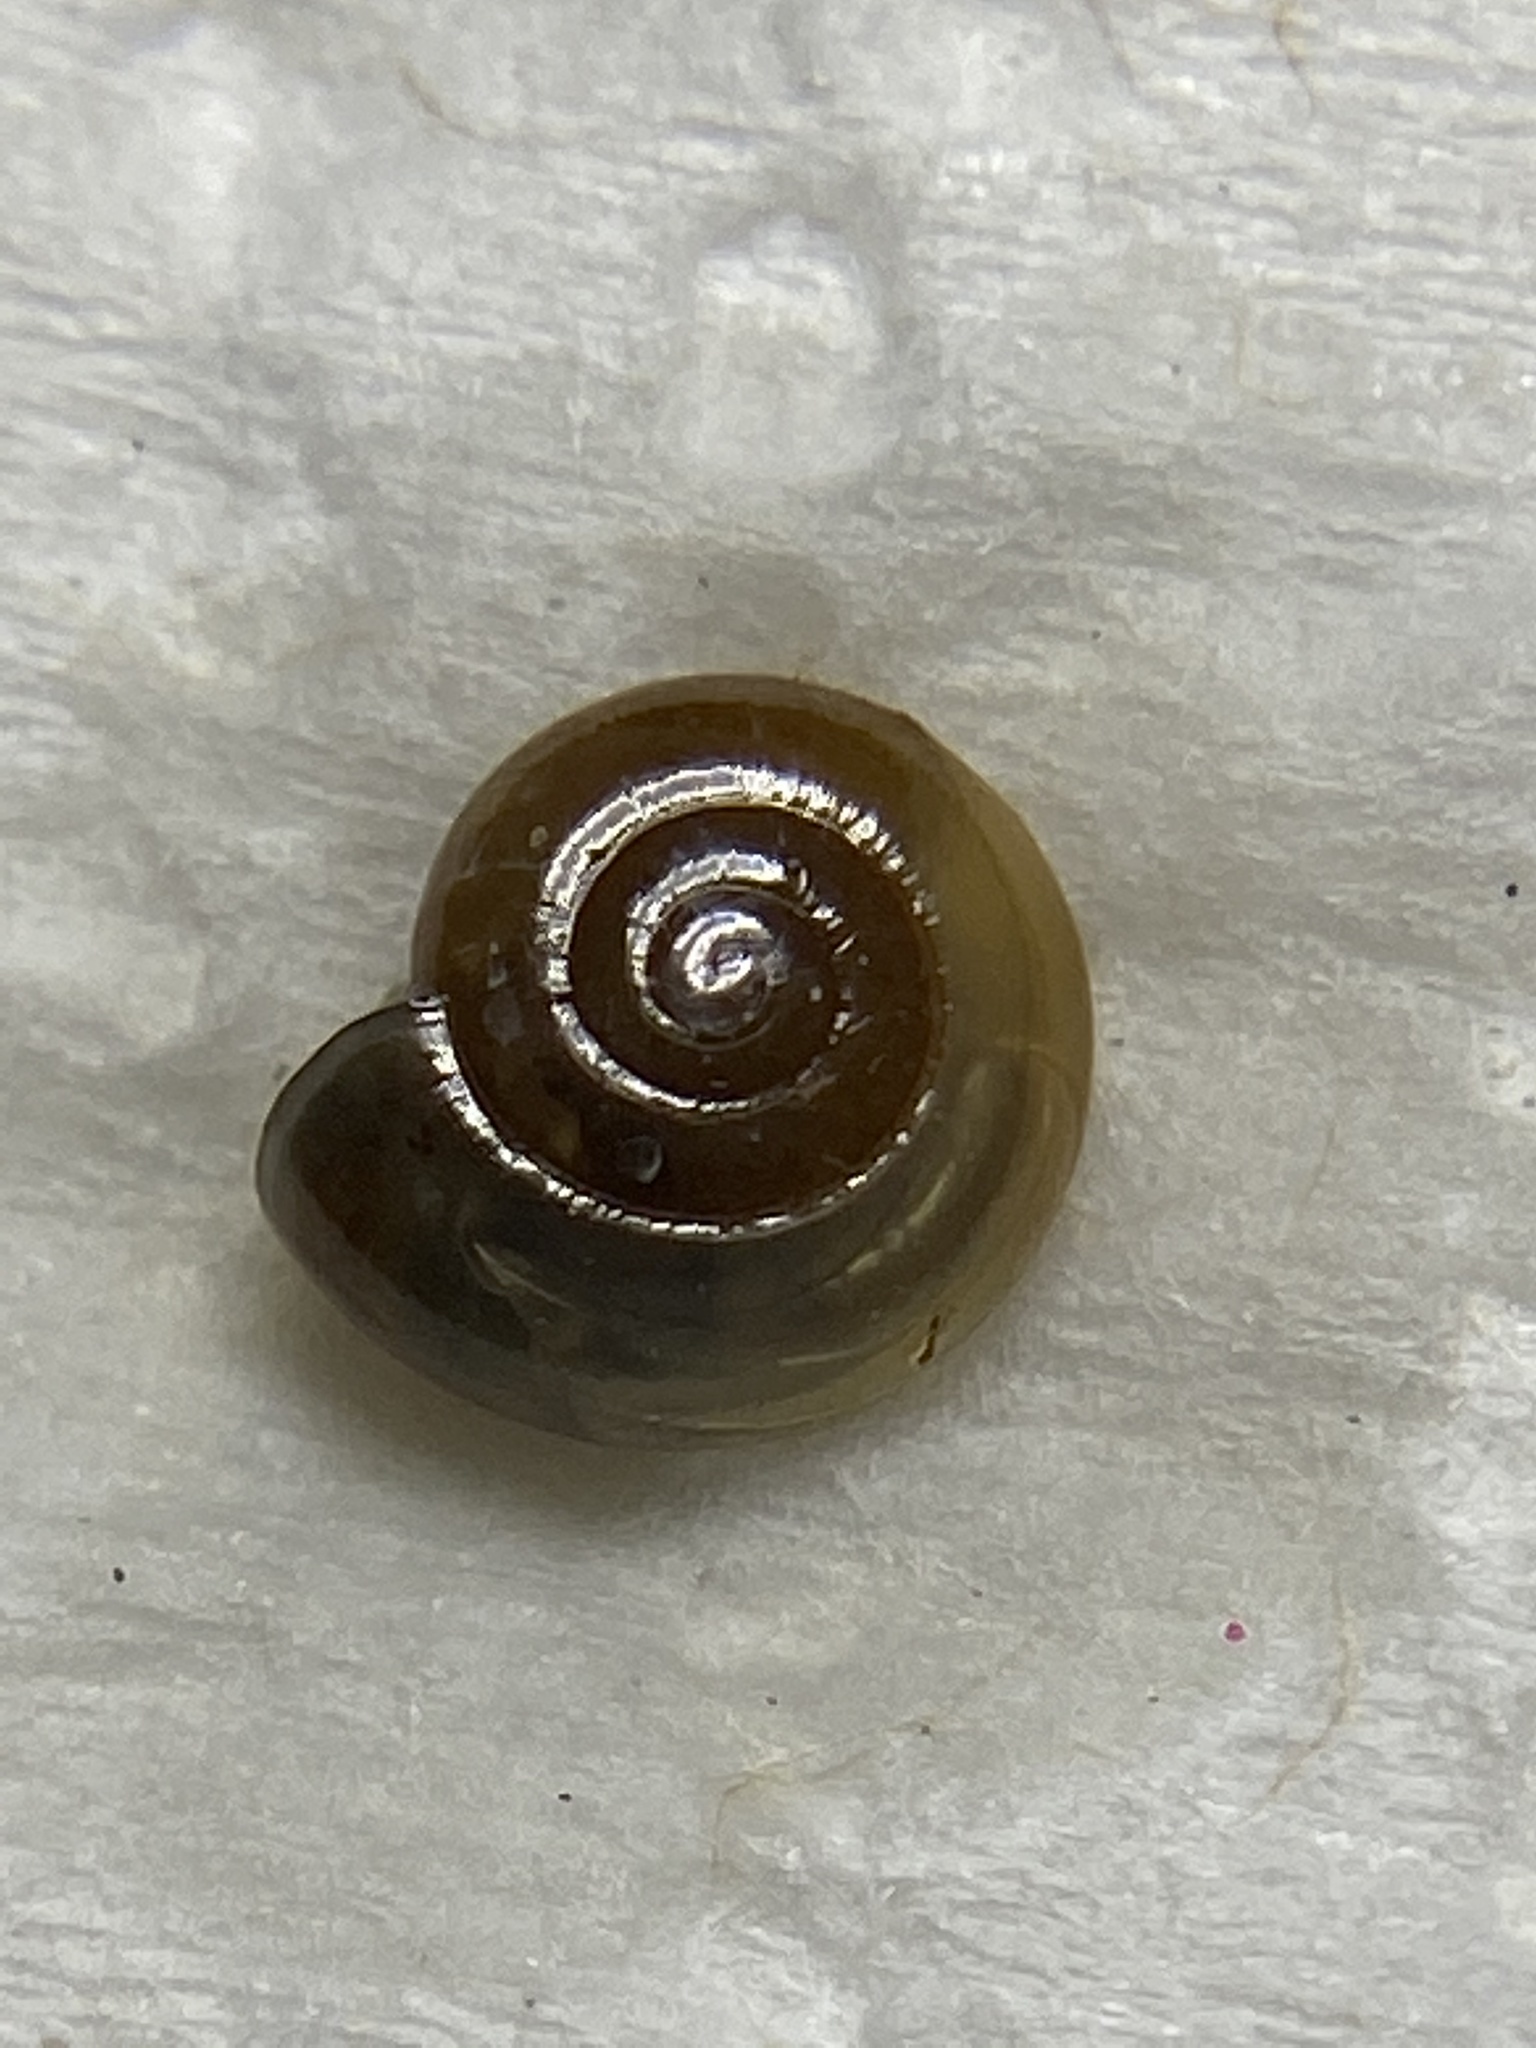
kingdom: Animalia
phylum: Mollusca
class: Gastropoda
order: Stylommatophora
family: Oxychilidae
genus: Oxychilus
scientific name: Oxychilus draparnaudi
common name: Draparnaud's glass snail
